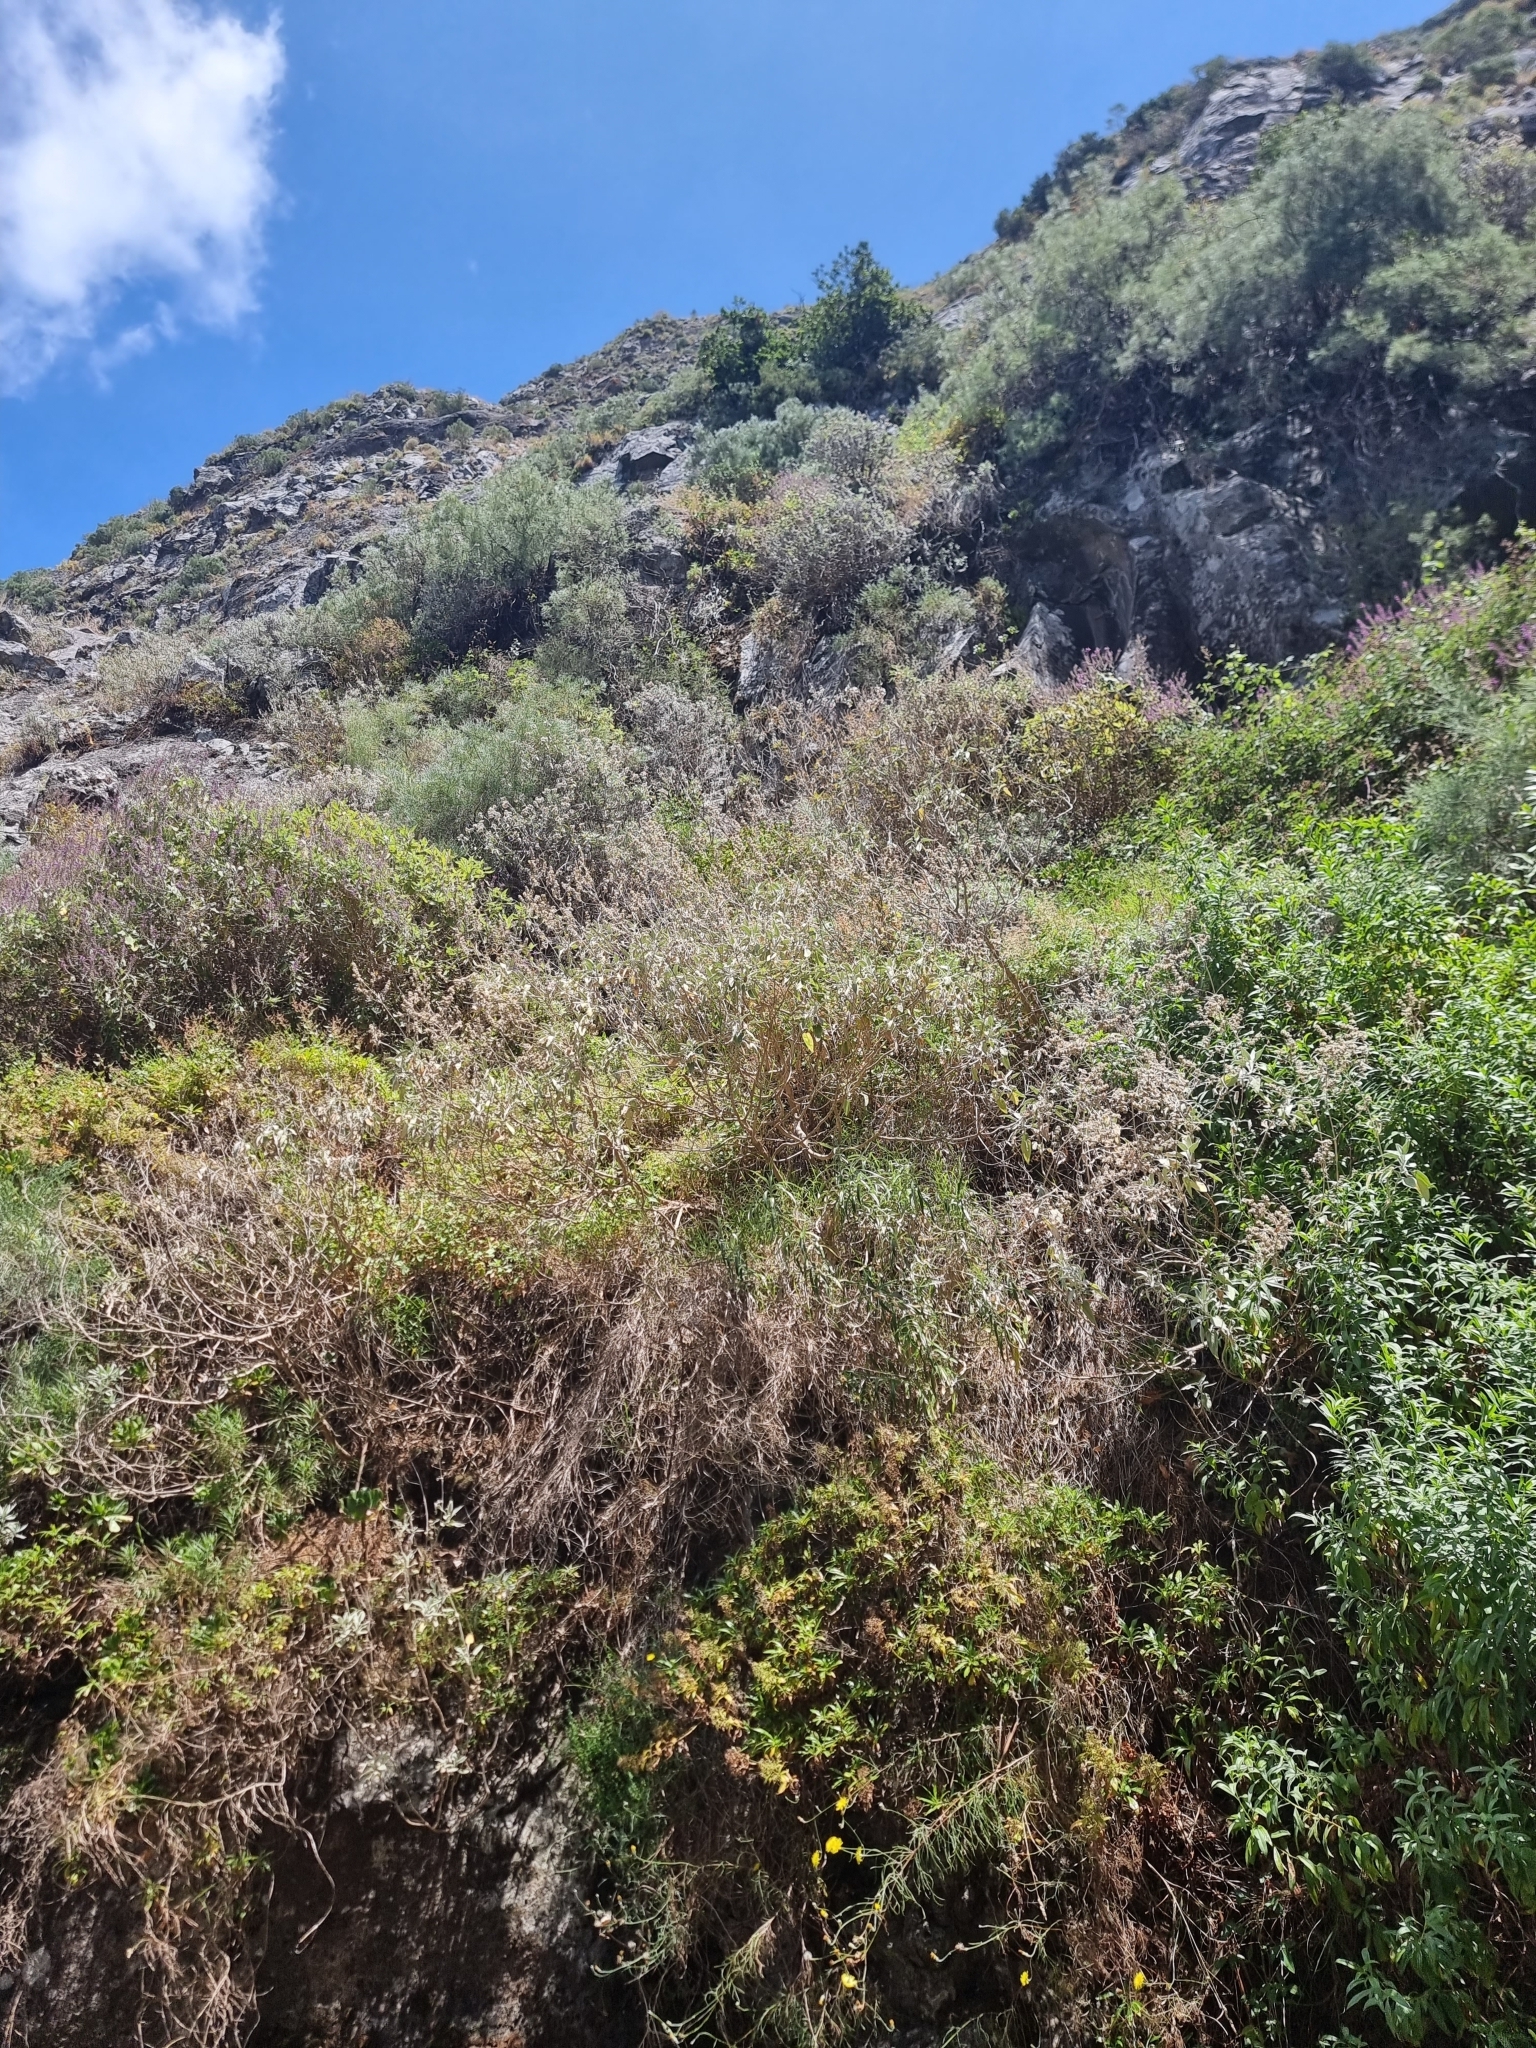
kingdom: Plantae
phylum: Tracheophyta
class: Magnoliopsida
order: Lamiales
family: Lamiaceae
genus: Sideritis
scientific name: Sideritis candicans
